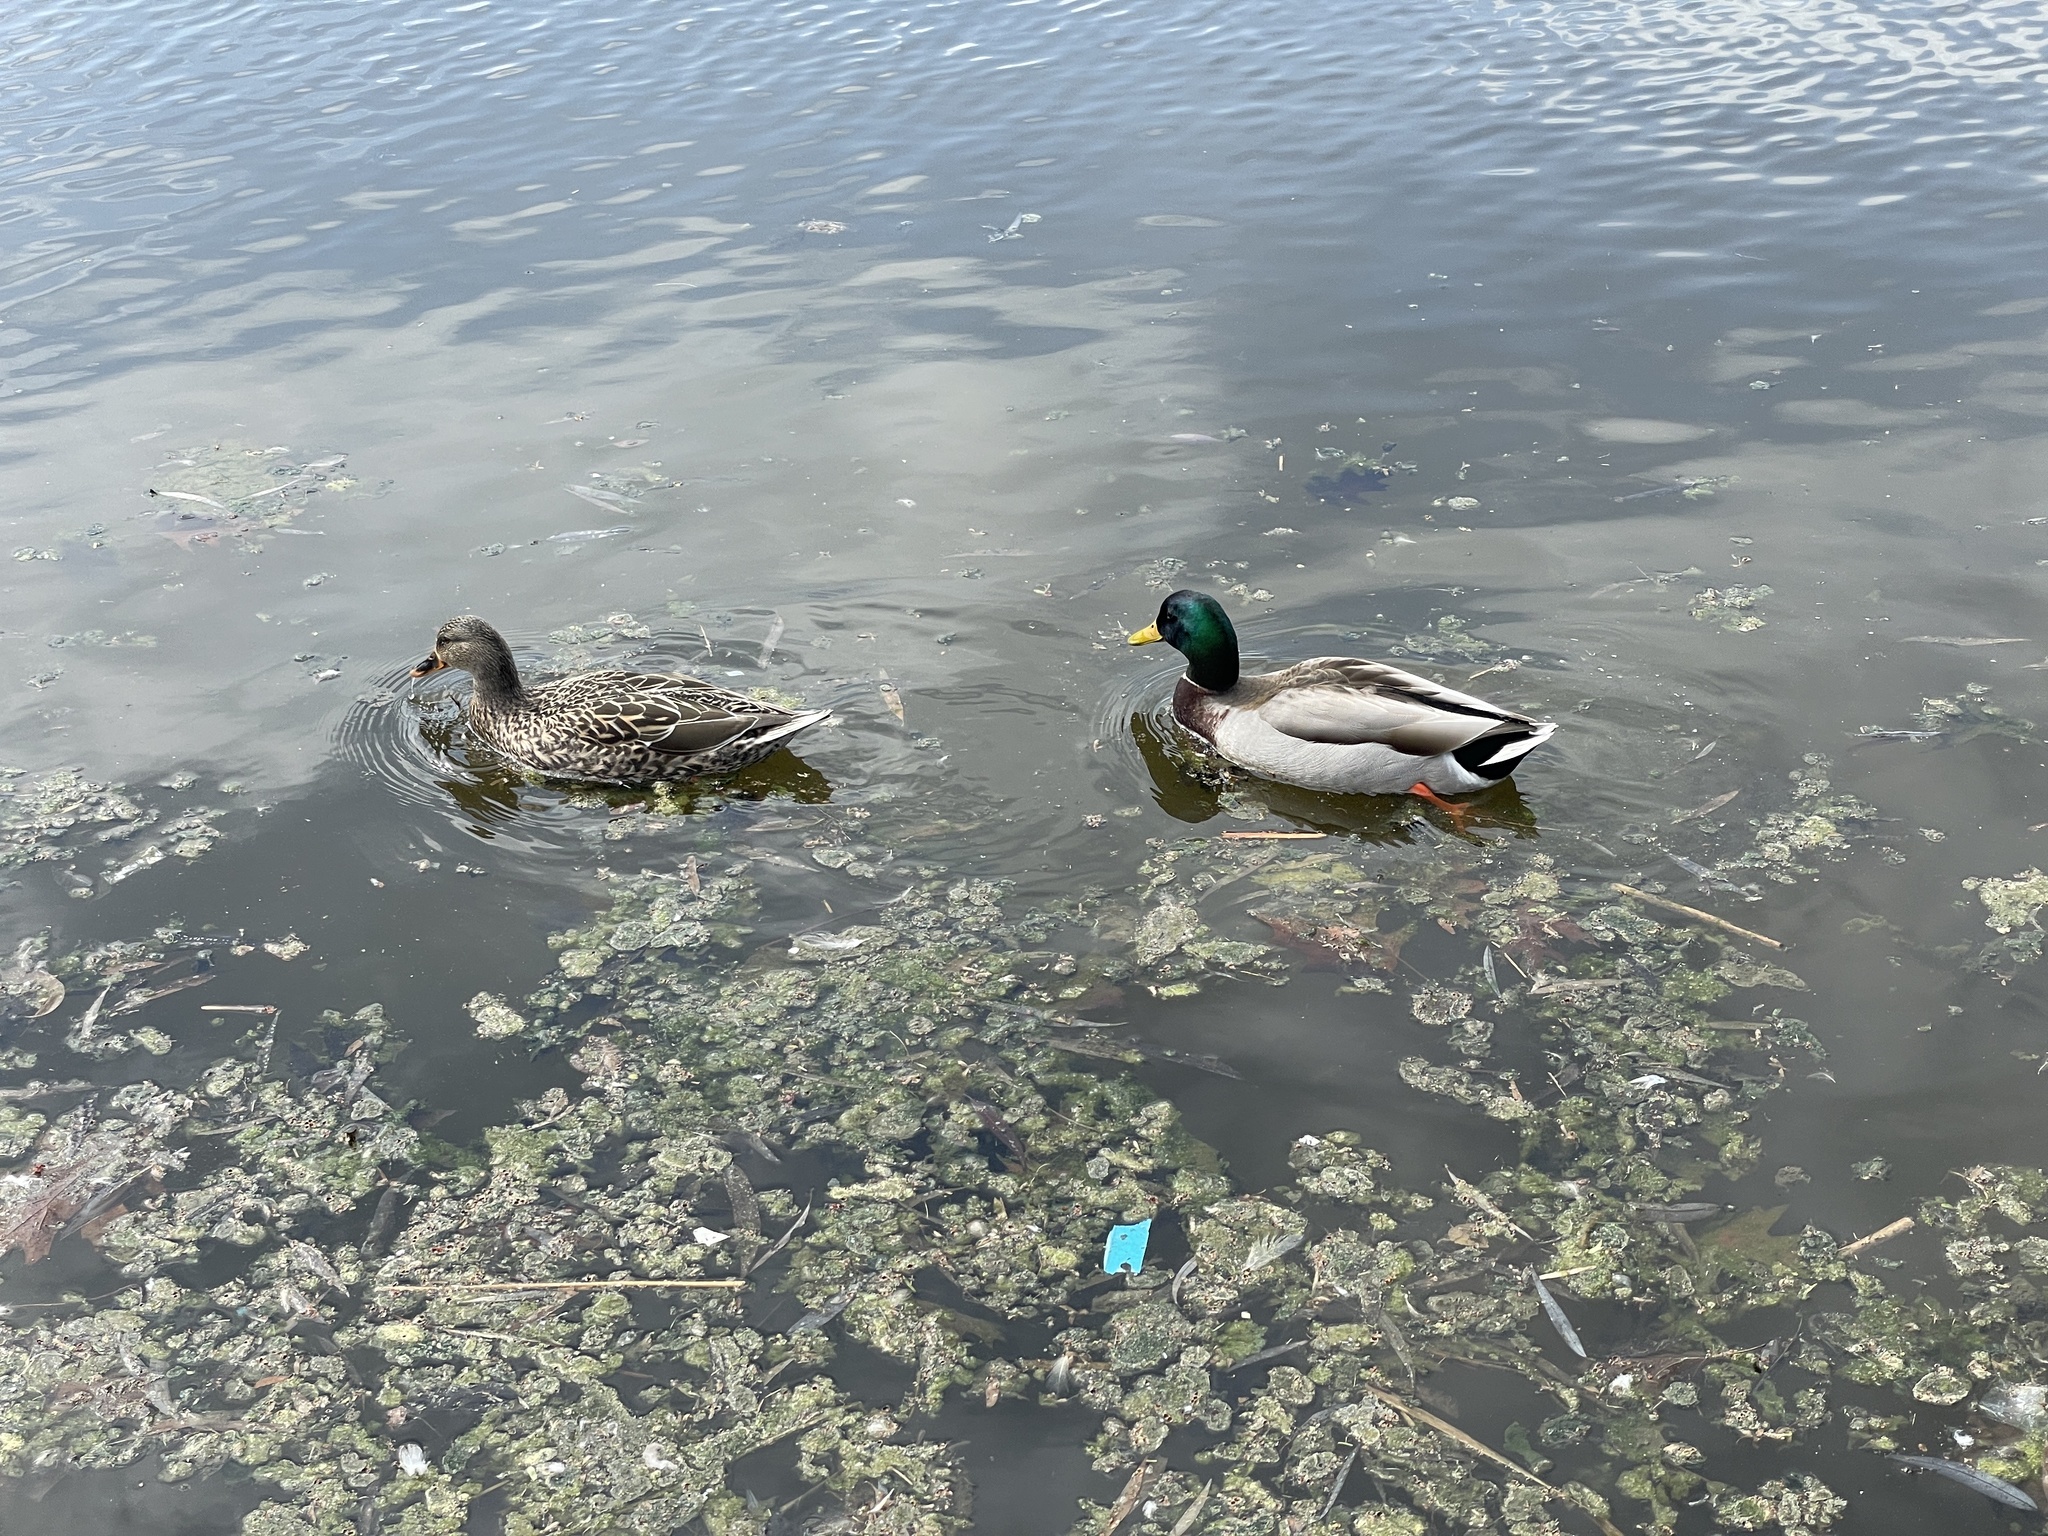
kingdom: Animalia
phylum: Chordata
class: Aves
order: Anseriformes
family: Anatidae
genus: Anas
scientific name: Anas platyrhynchos
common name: Mallard
